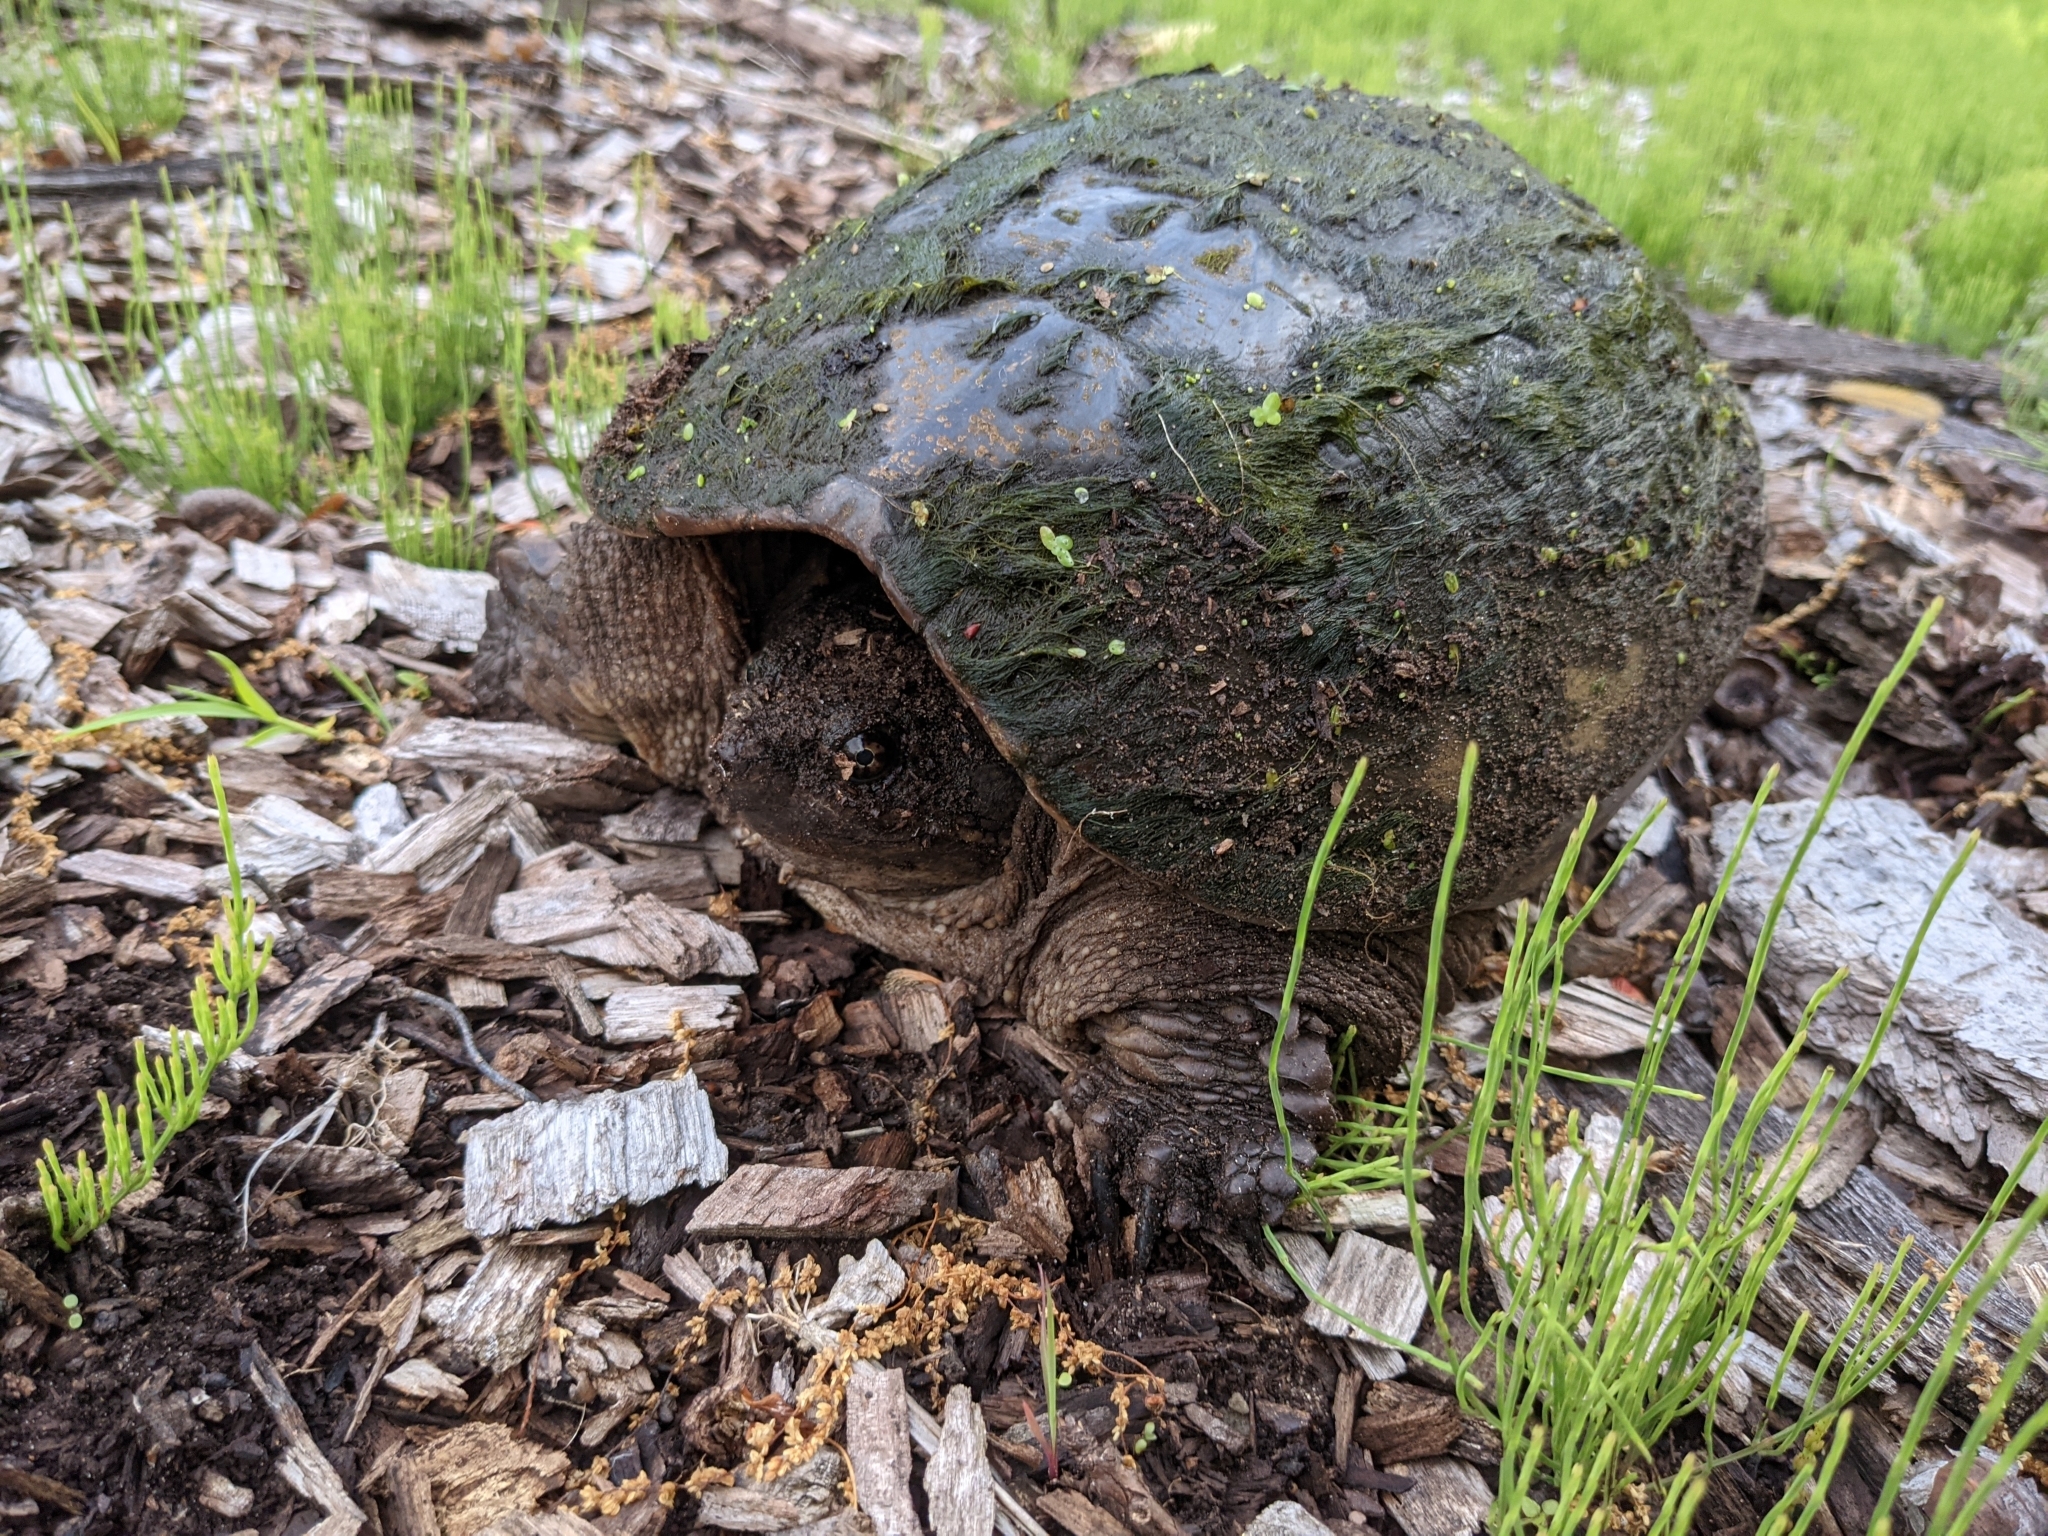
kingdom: Animalia
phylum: Chordata
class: Testudines
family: Chelydridae
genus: Chelydra
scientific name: Chelydra serpentina
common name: Common snapping turtle
